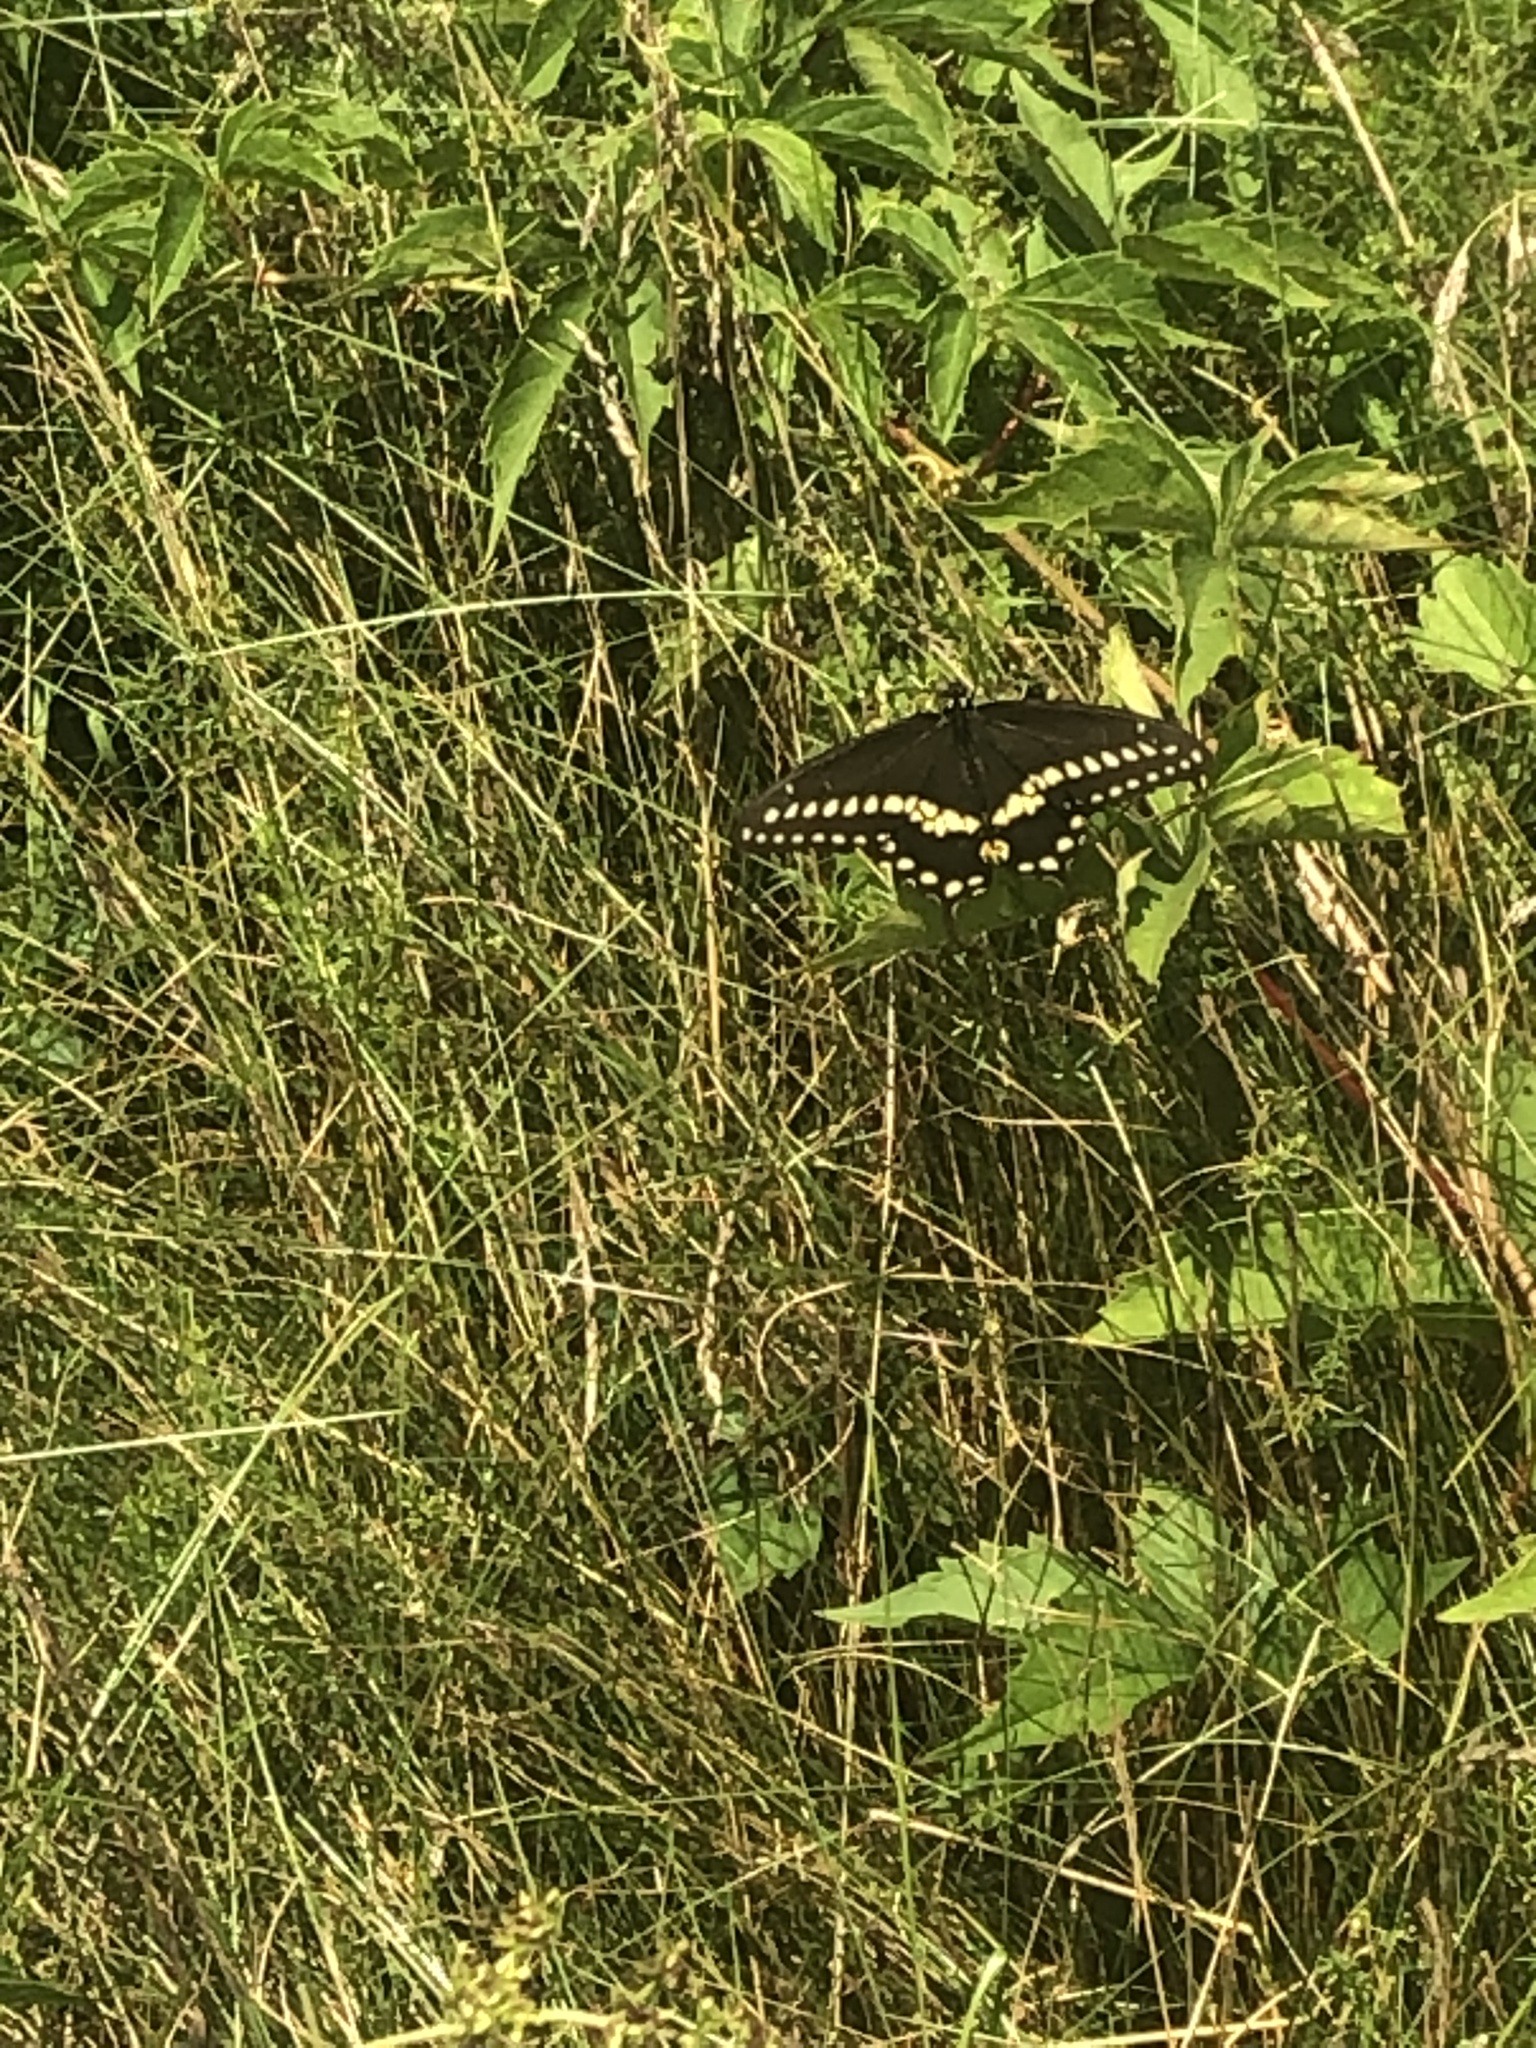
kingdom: Animalia
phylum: Arthropoda
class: Insecta
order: Lepidoptera
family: Papilionidae
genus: Papilio
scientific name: Papilio polyxenes
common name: Black swallowtail
